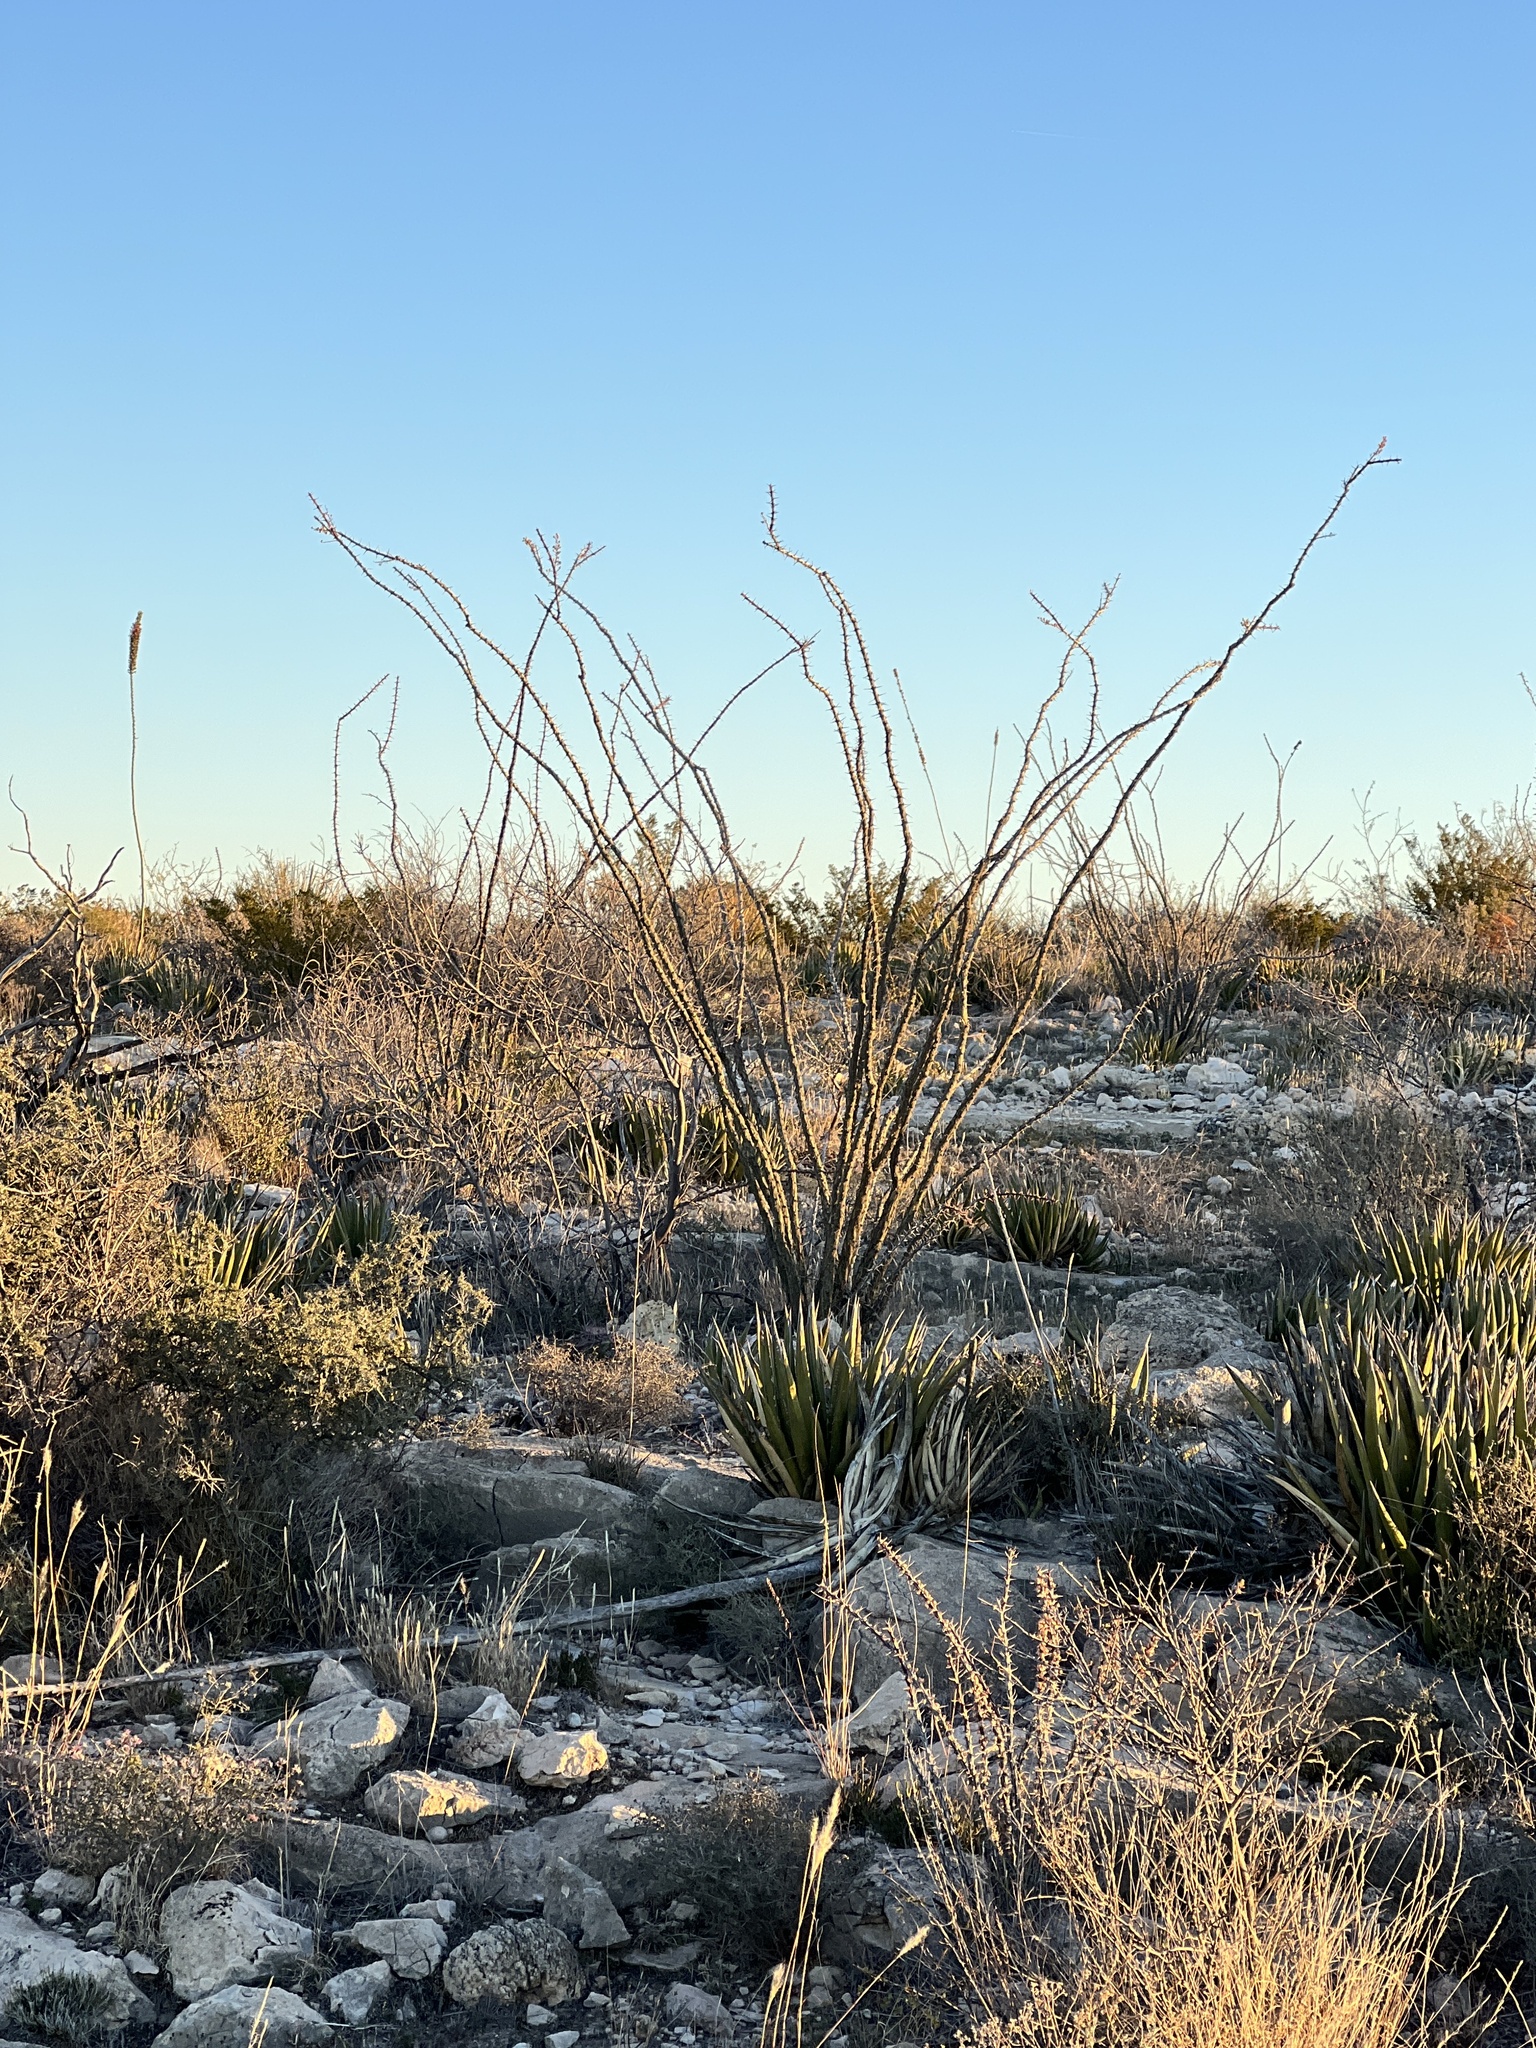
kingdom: Plantae
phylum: Tracheophyta
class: Magnoliopsida
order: Ericales
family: Fouquieriaceae
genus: Fouquieria
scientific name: Fouquieria splendens
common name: Vine-cactus
